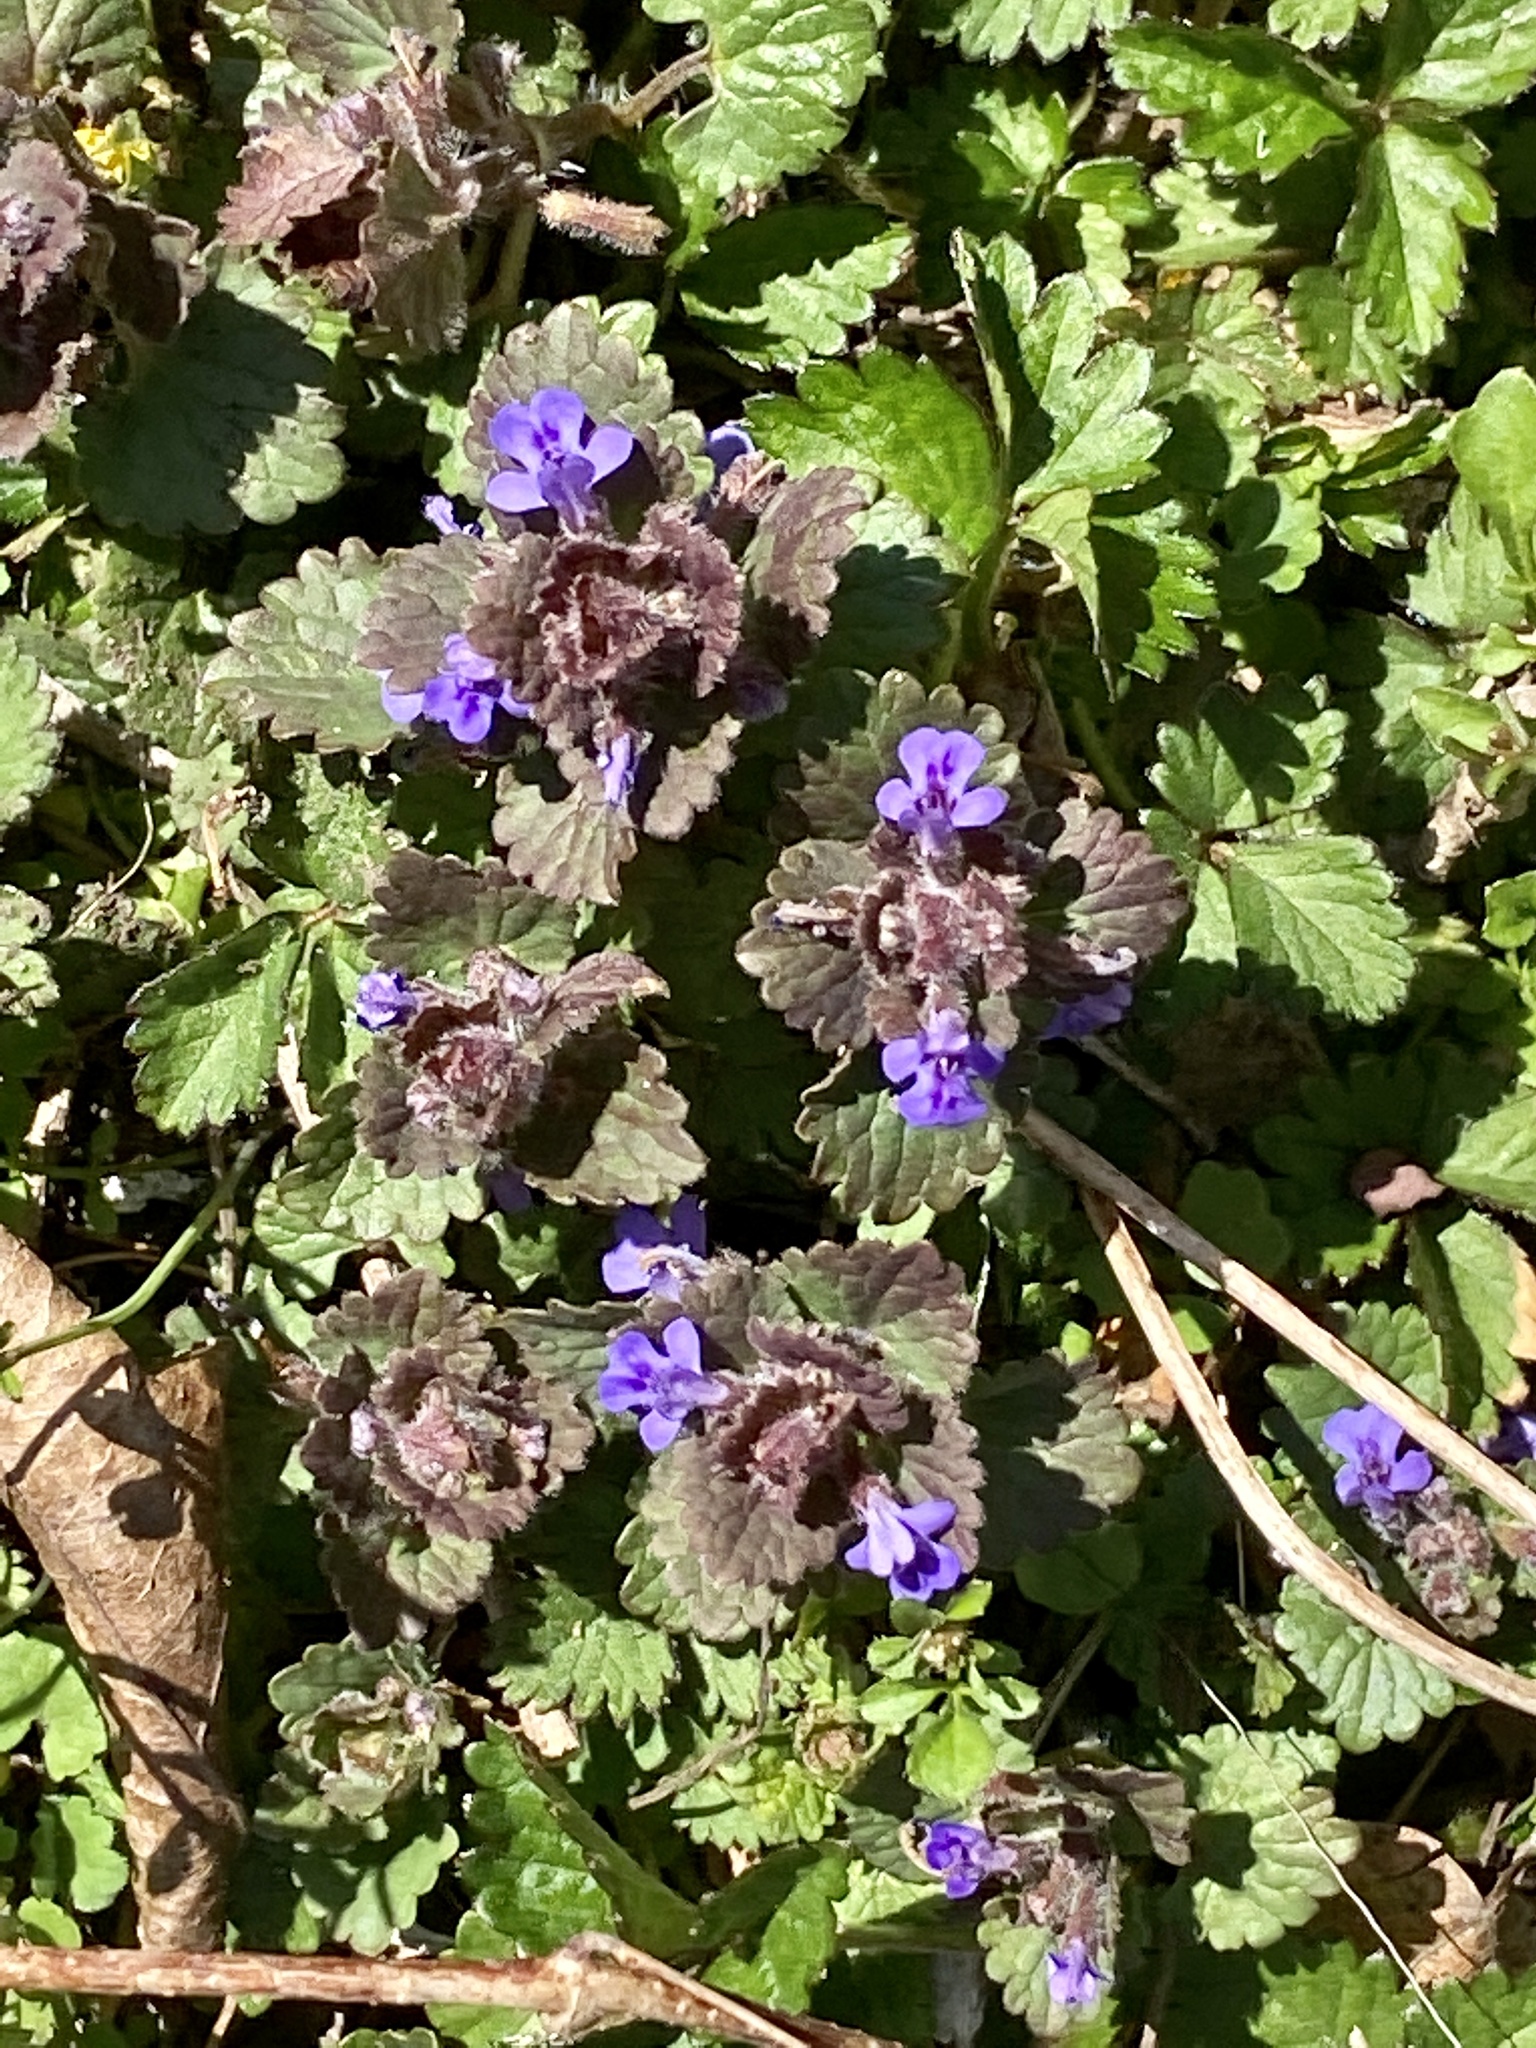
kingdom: Plantae
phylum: Tracheophyta
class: Magnoliopsida
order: Lamiales
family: Lamiaceae
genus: Glechoma
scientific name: Glechoma hederacea
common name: Ground ivy
